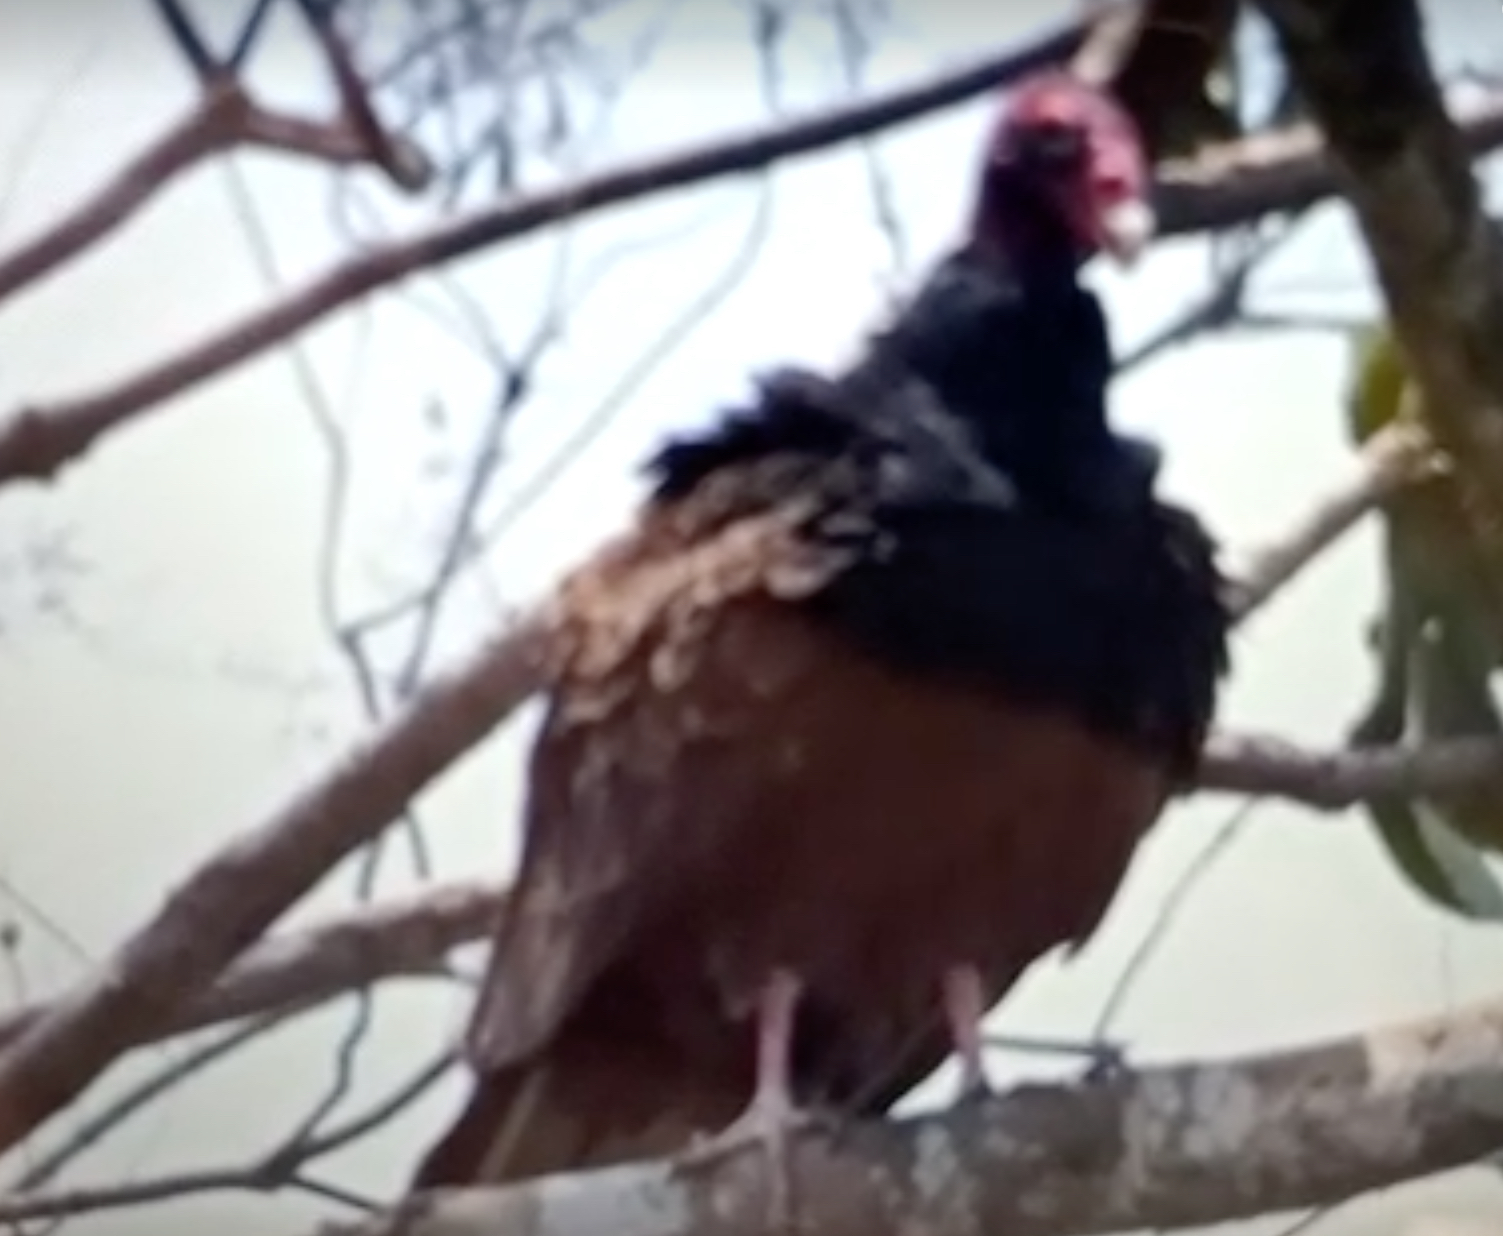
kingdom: Animalia
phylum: Chordata
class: Aves
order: Accipitriformes
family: Cathartidae
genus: Cathartes
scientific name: Cathartes aura
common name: Turkey vulture
